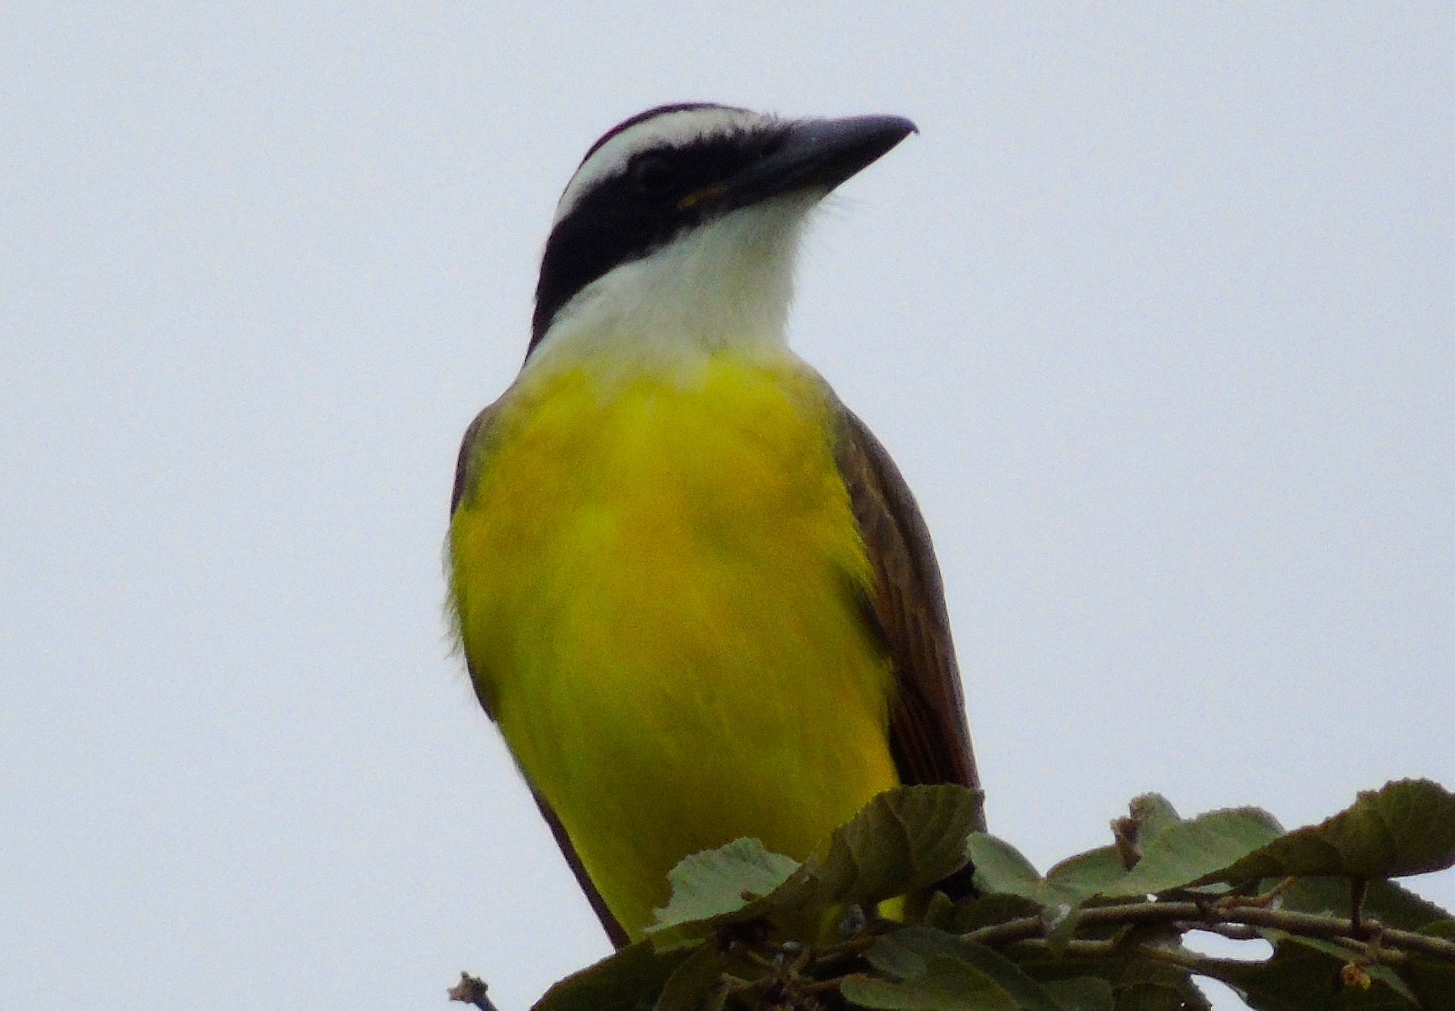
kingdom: Animalia
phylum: Chordata
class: Aves
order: Passeriformes
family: Tyrannidae
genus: Pitangus
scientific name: Pitangus sulphuratus
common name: Great kiskadee
